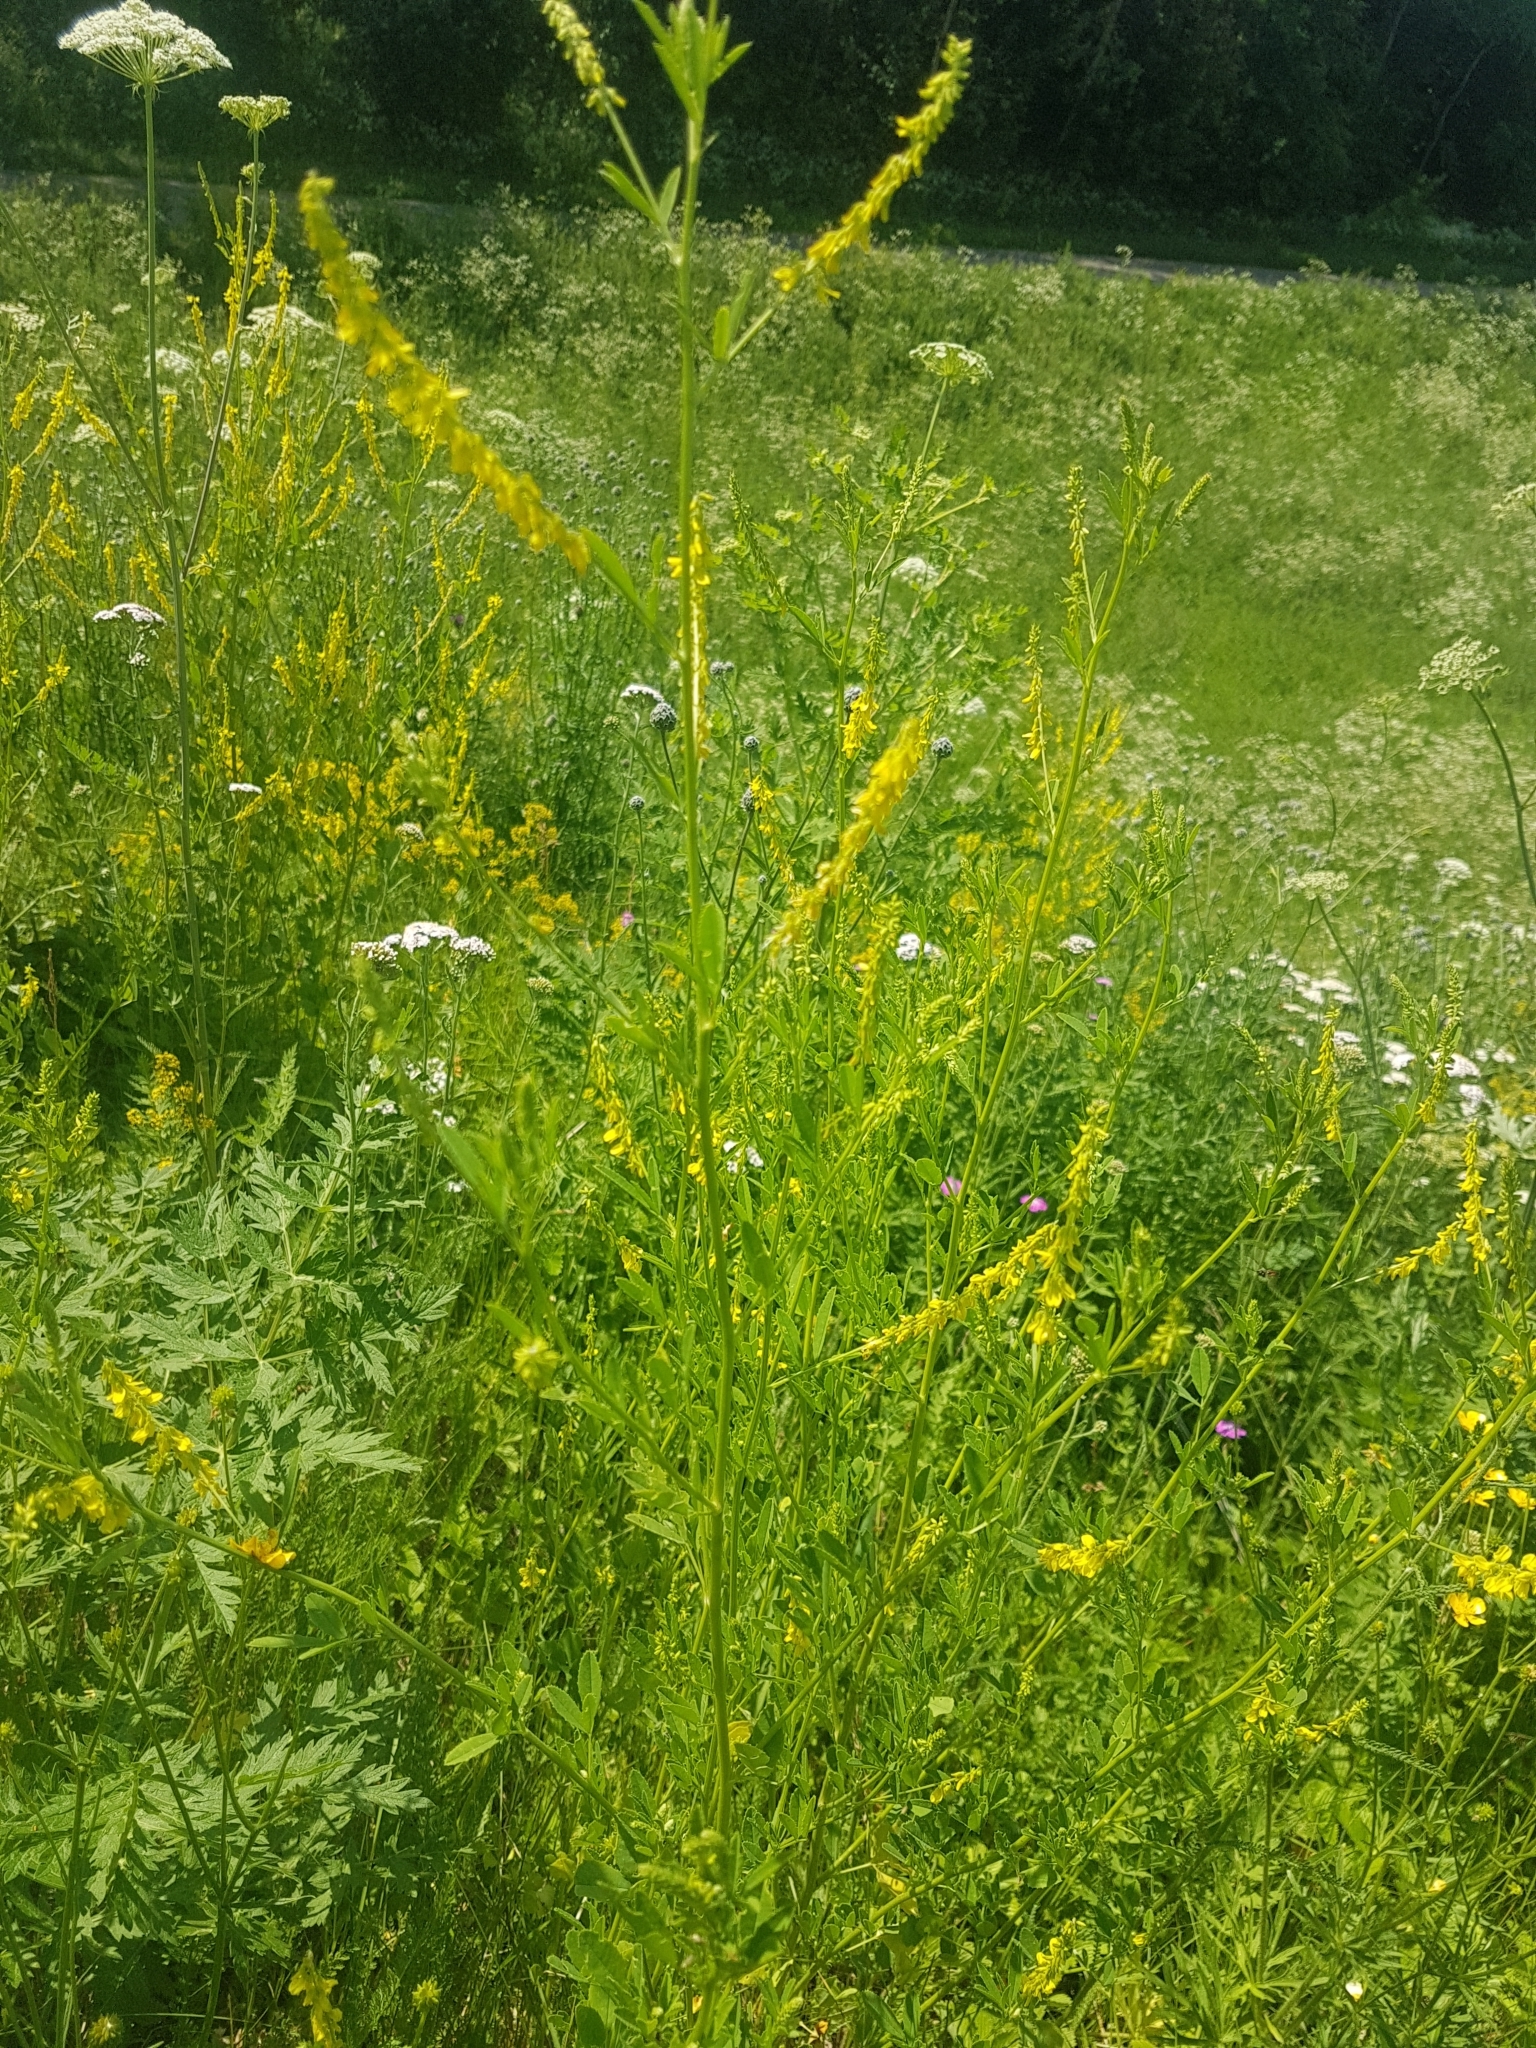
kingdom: Plantae
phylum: Tracheophyta
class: Magnoliopsida
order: Fabales
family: Fabaceae
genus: Melilotus
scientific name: Melilotus officinalis
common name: Sweetclover
